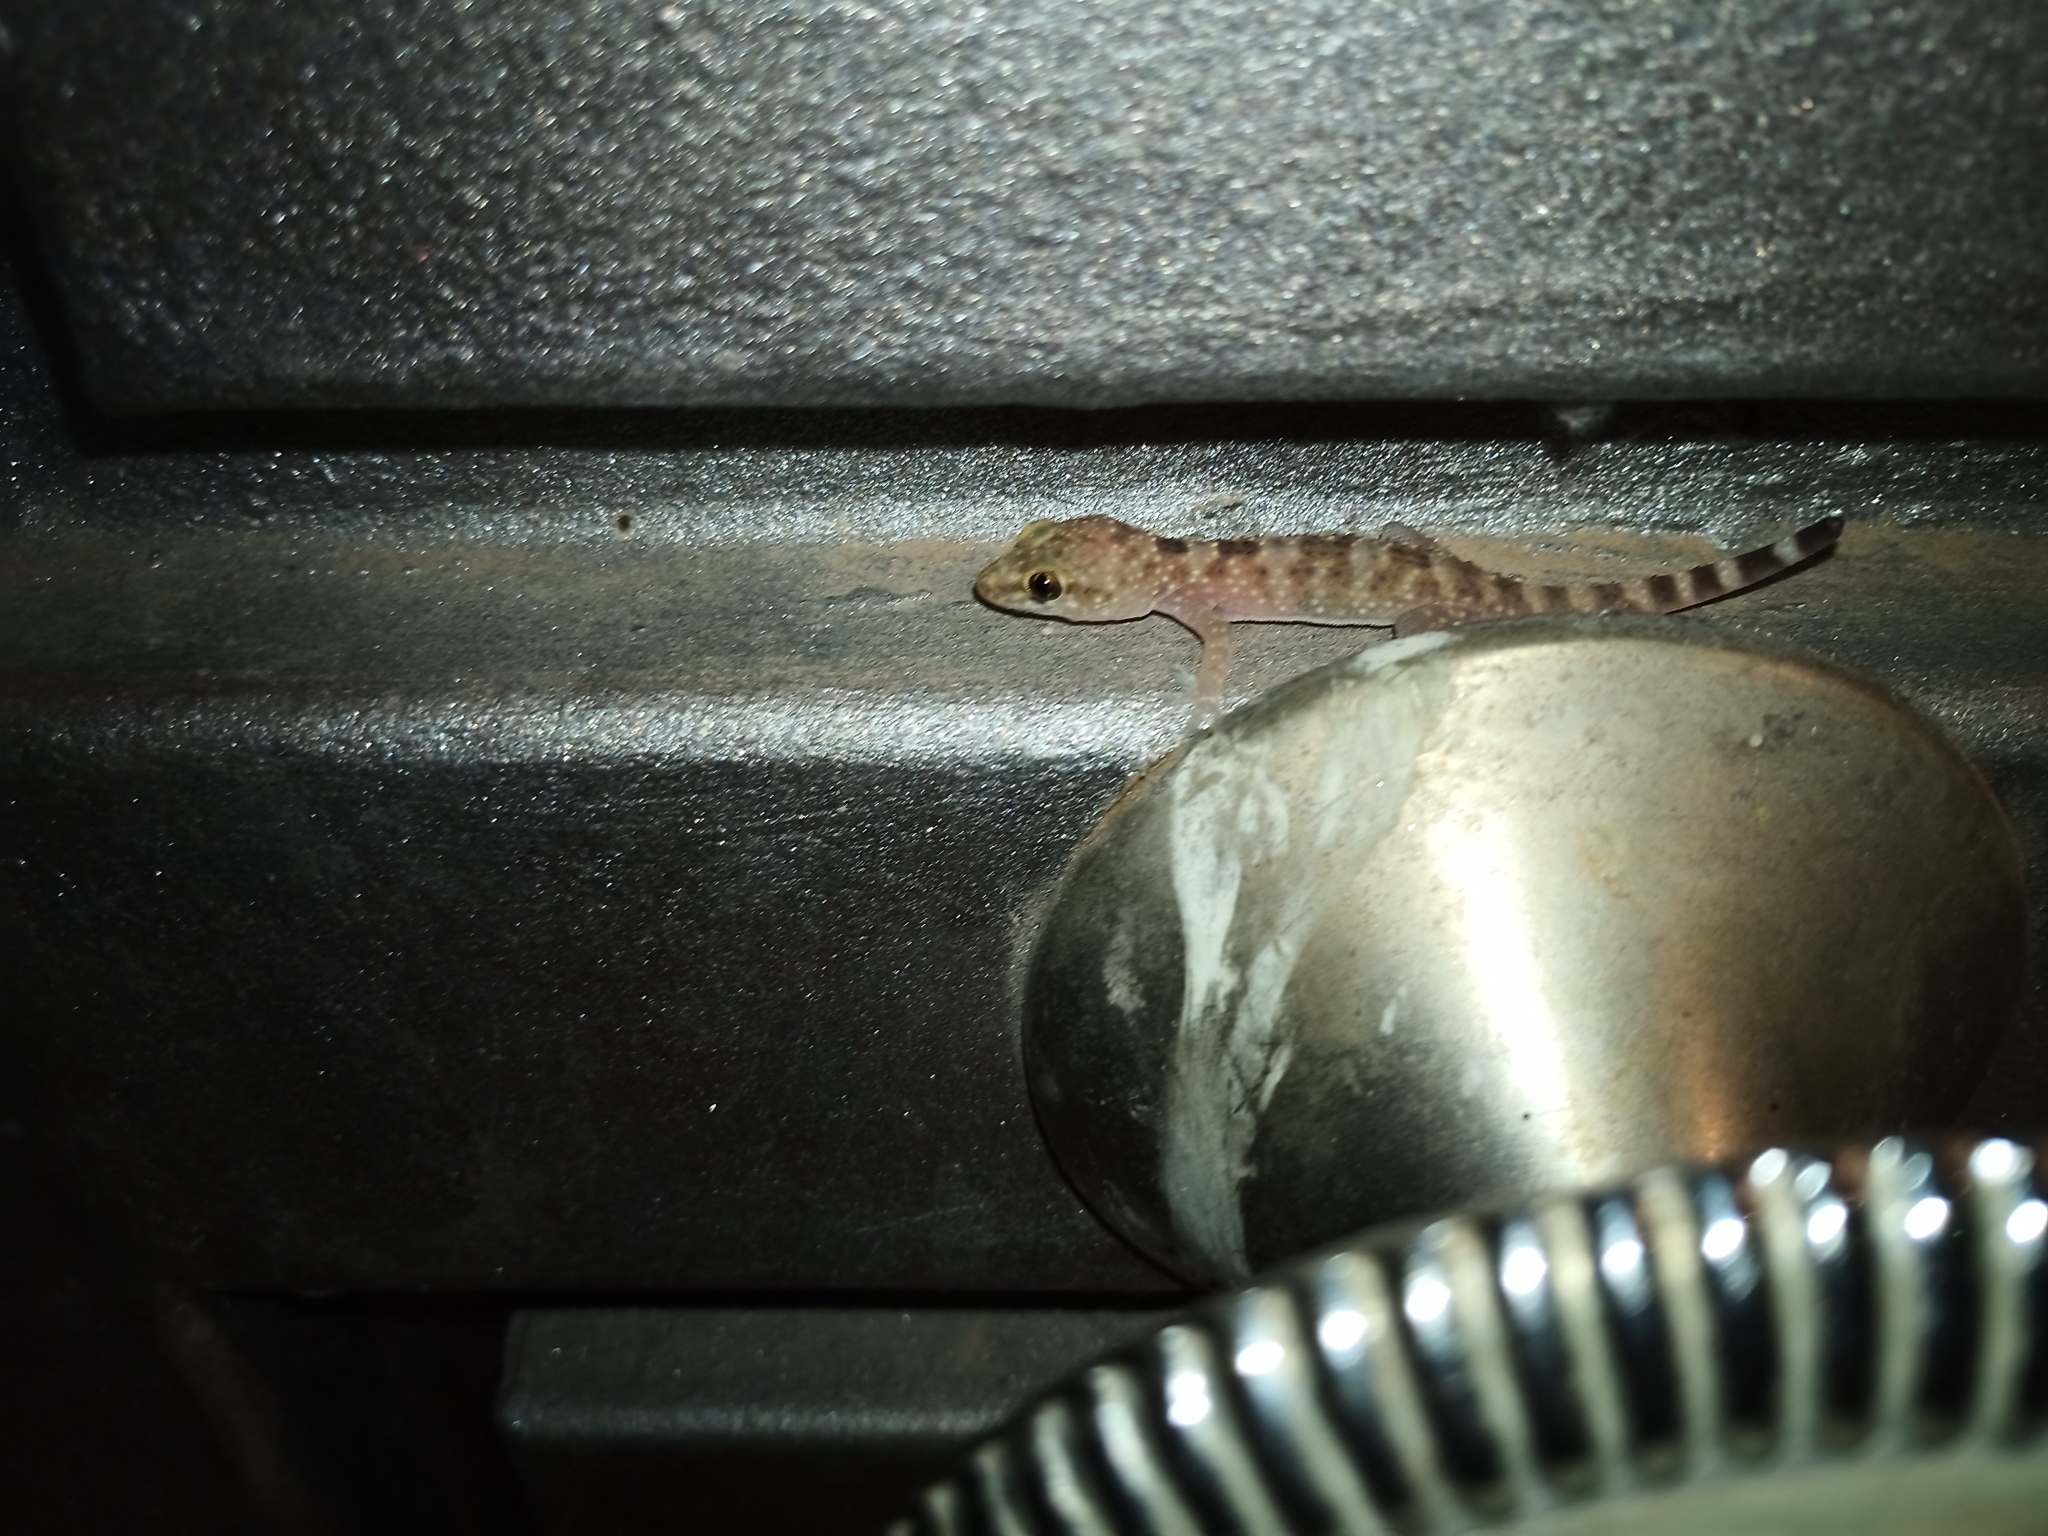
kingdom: Animalia
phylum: Chordata
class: Squamata
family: Gekkonidae
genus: Hemidactylus
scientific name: Hemidactylus turcicus
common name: Turkish gecko
